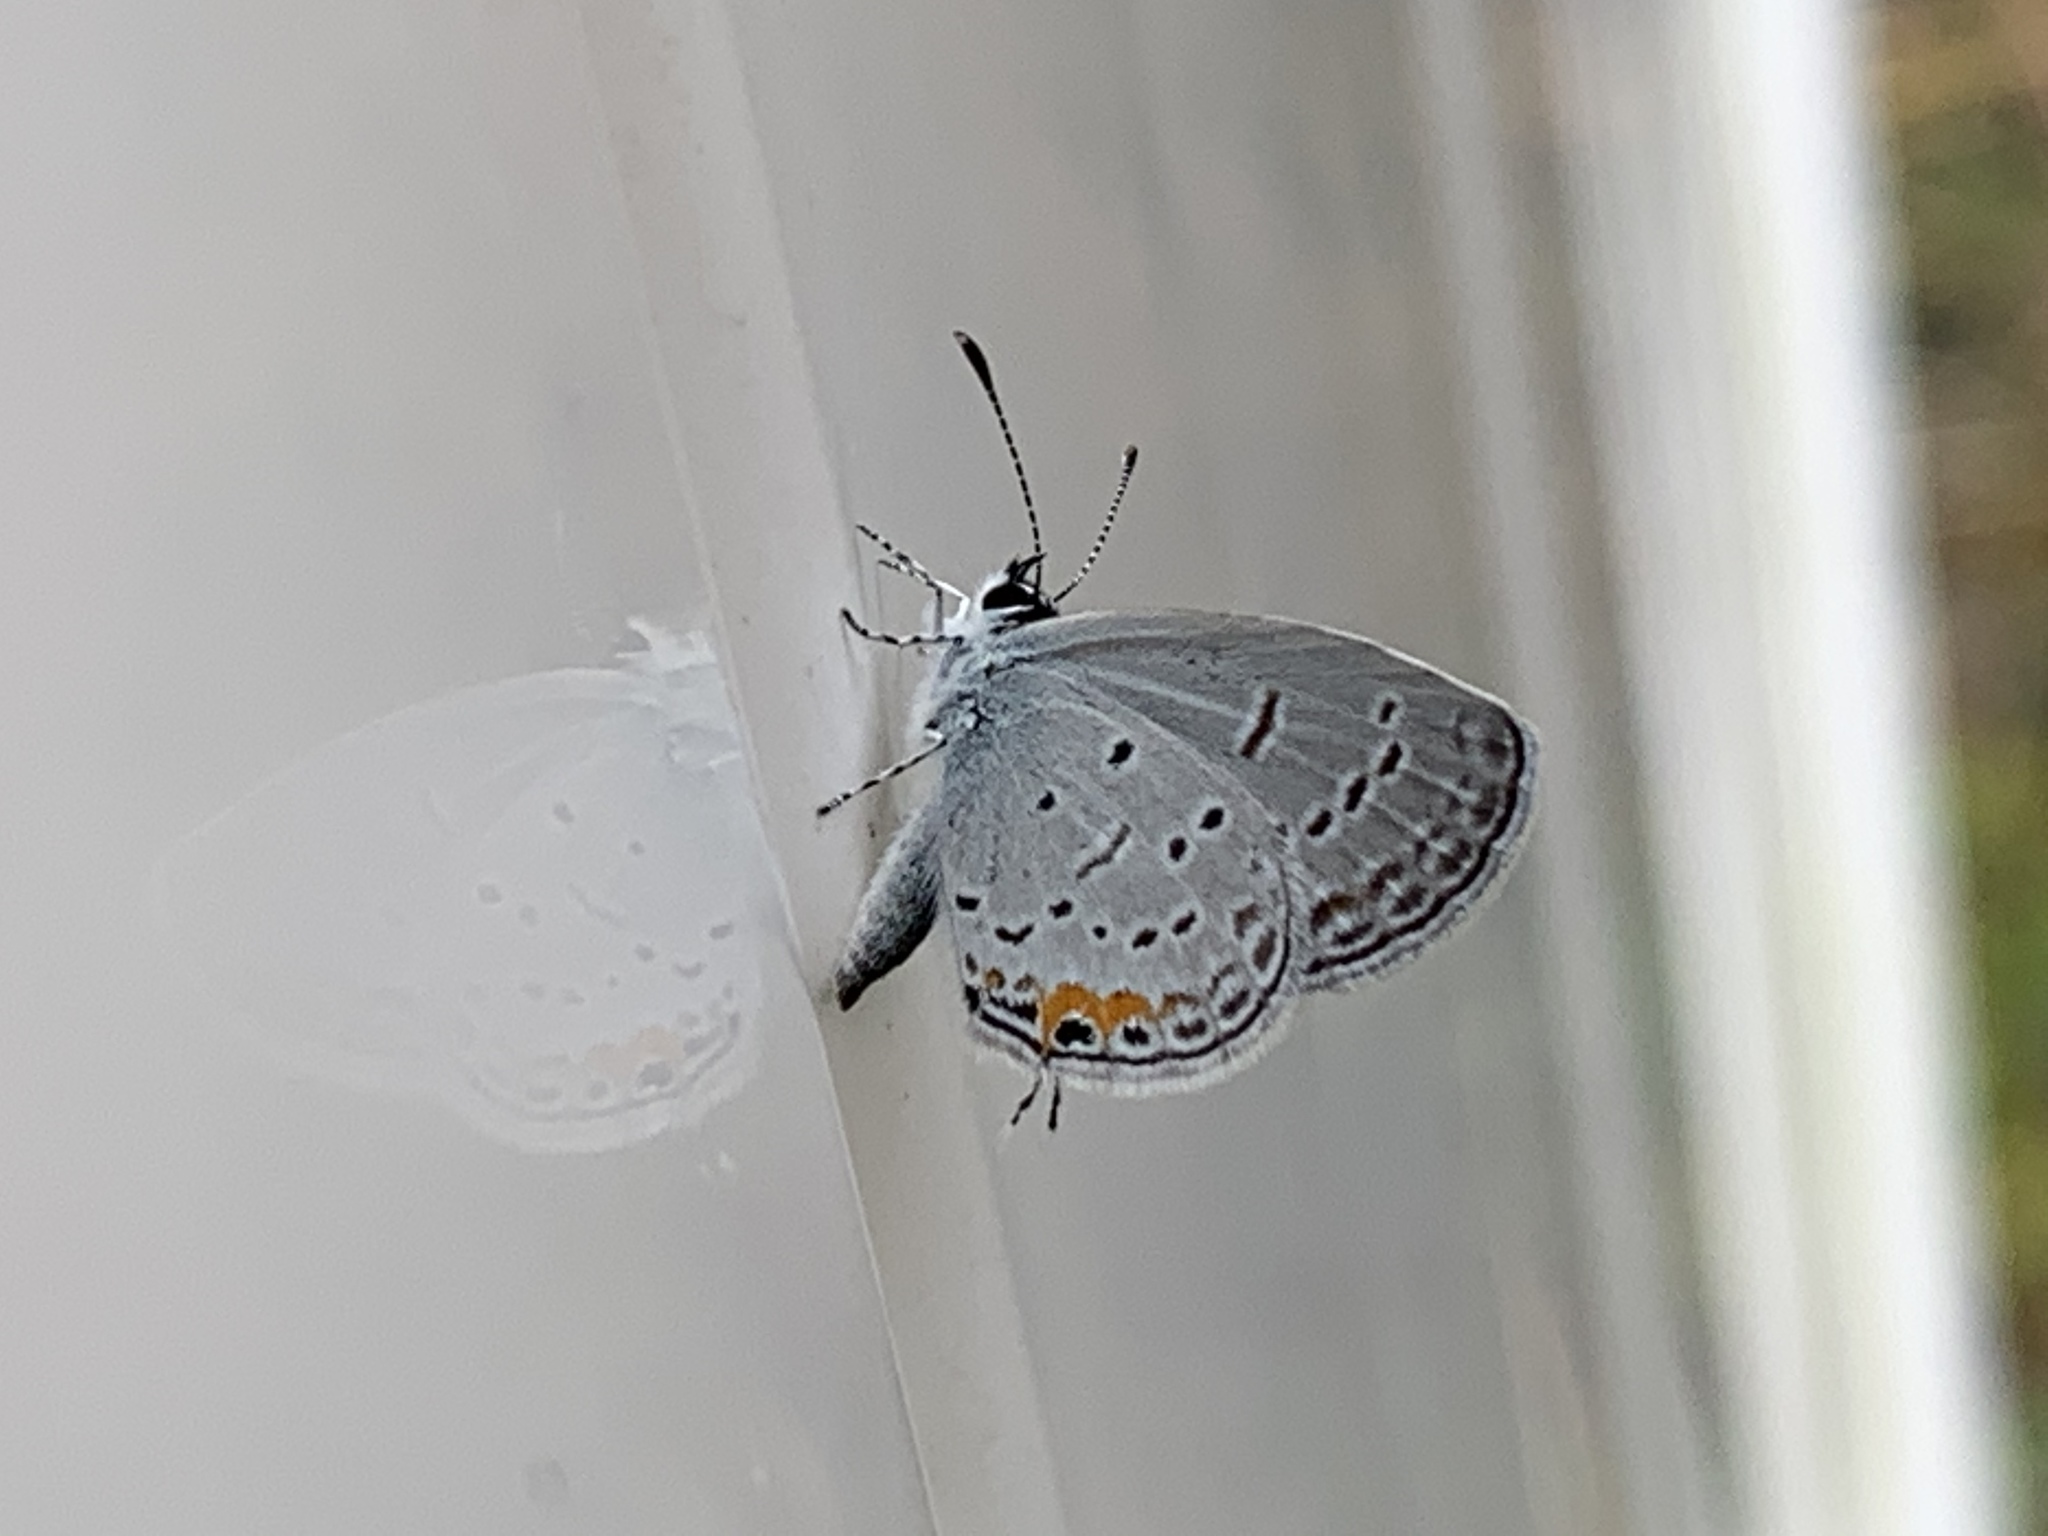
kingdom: Animalia
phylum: Arthropoda
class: Insecta
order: Lepidoptera
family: Lycaenidae
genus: Elkalyce
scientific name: Elkalyce comyntas
